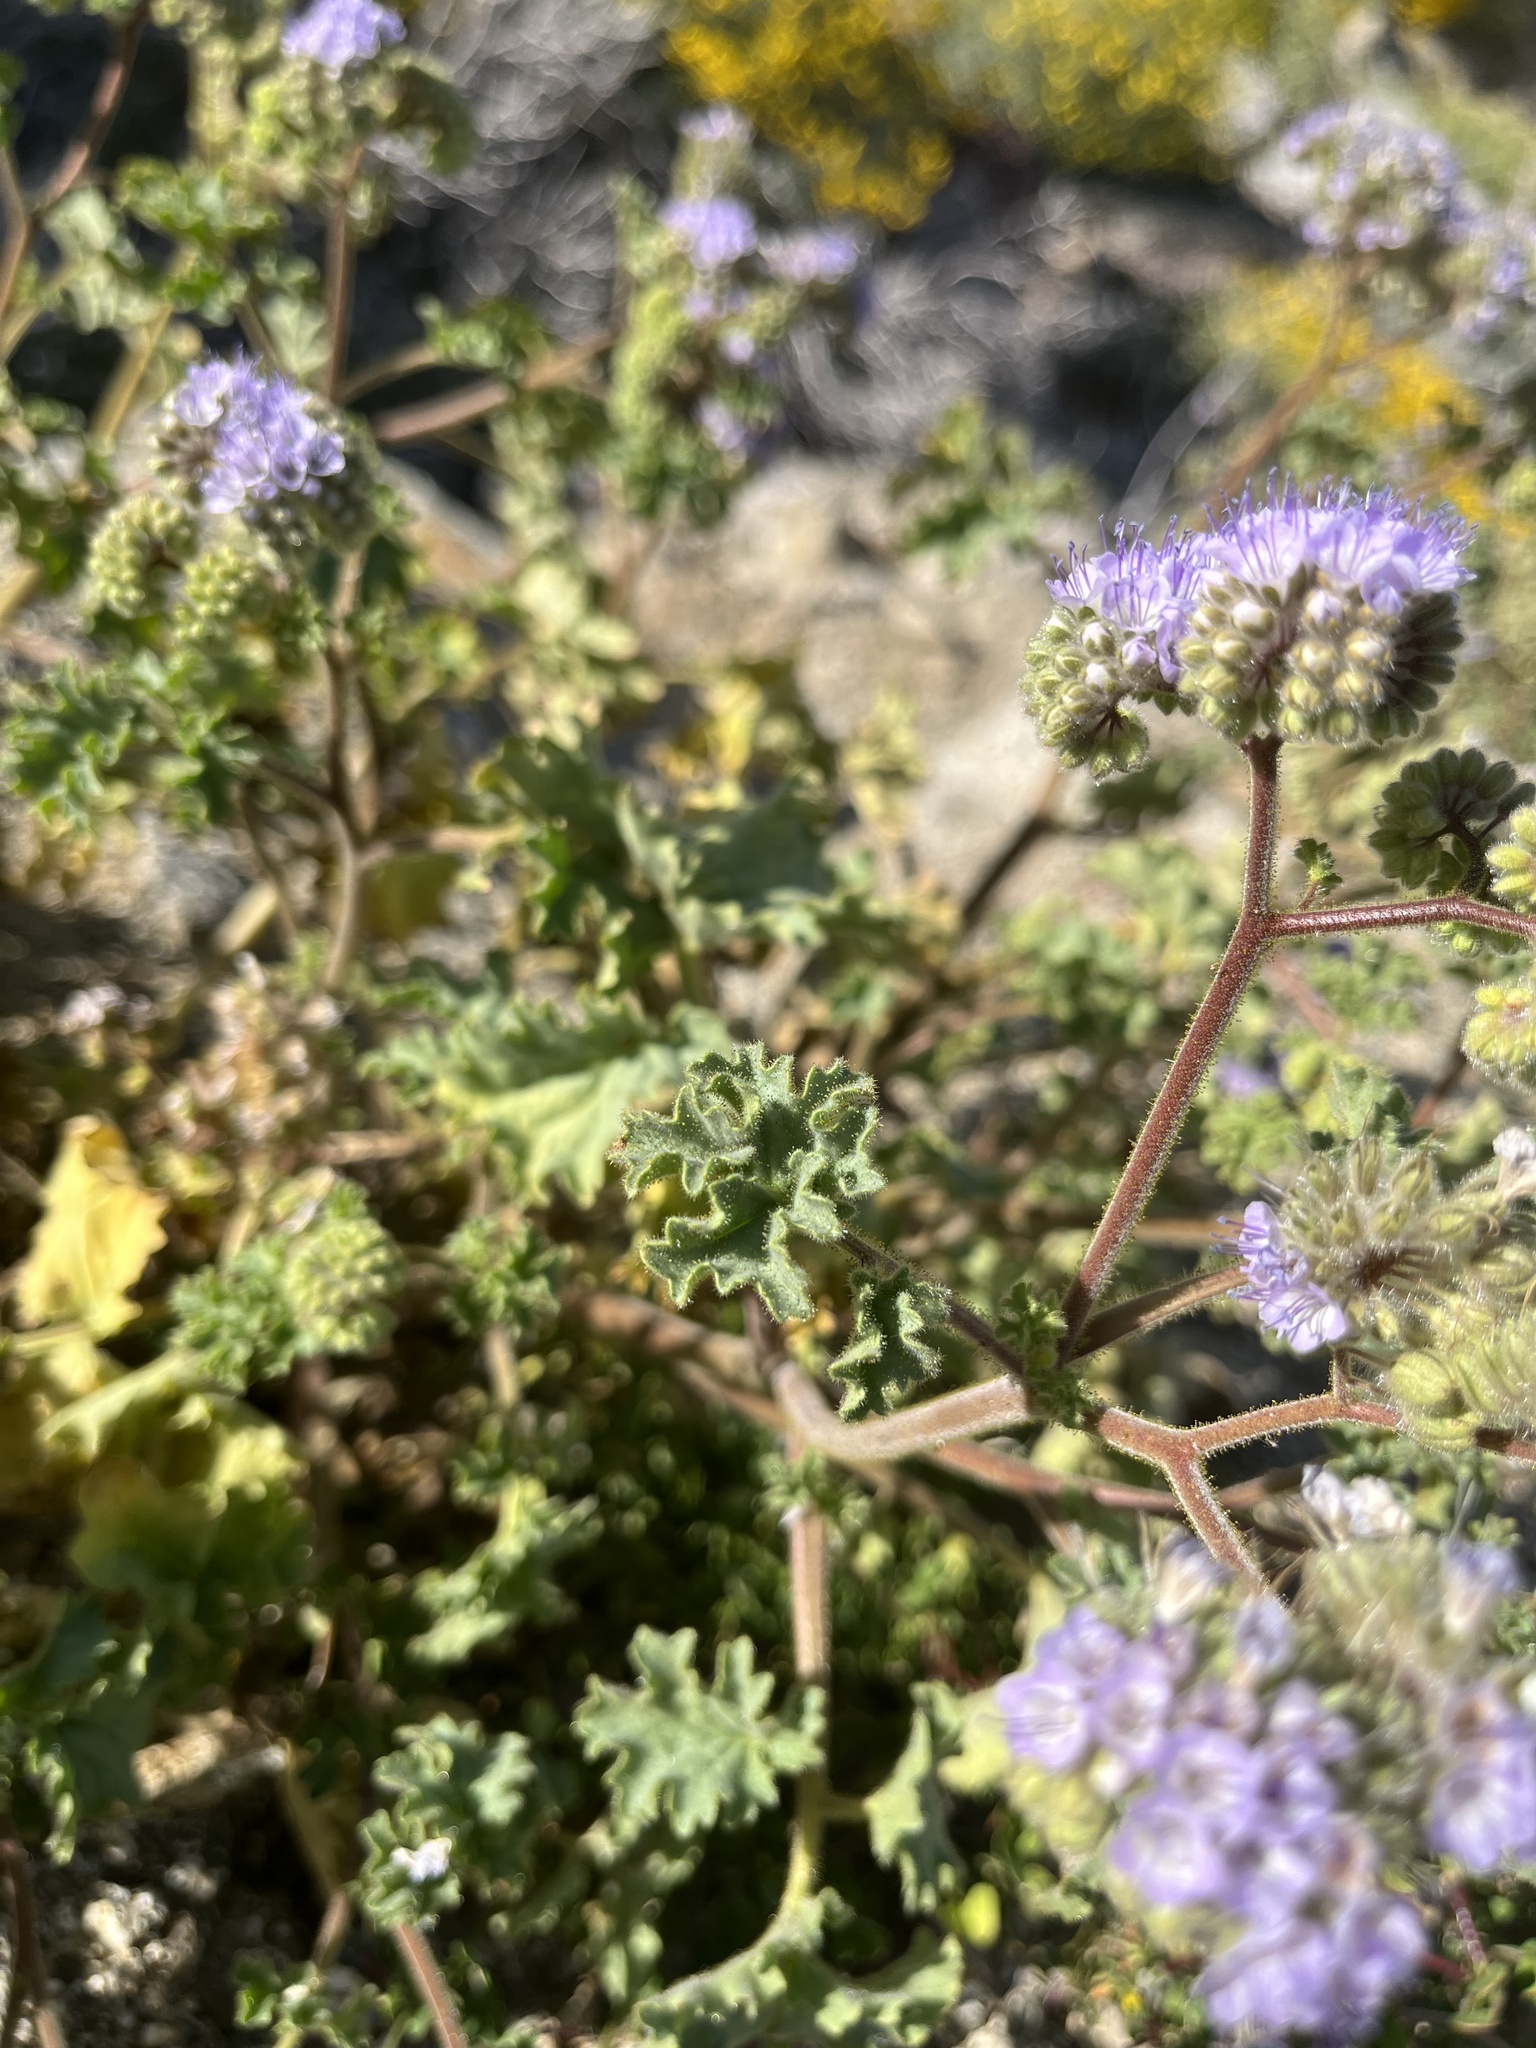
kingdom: Plantae
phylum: Tracheophyta
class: Magnoliopsida
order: Boraginales
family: Hydrophyllaceae
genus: Phacelia
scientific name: Phacelia pedicellata
